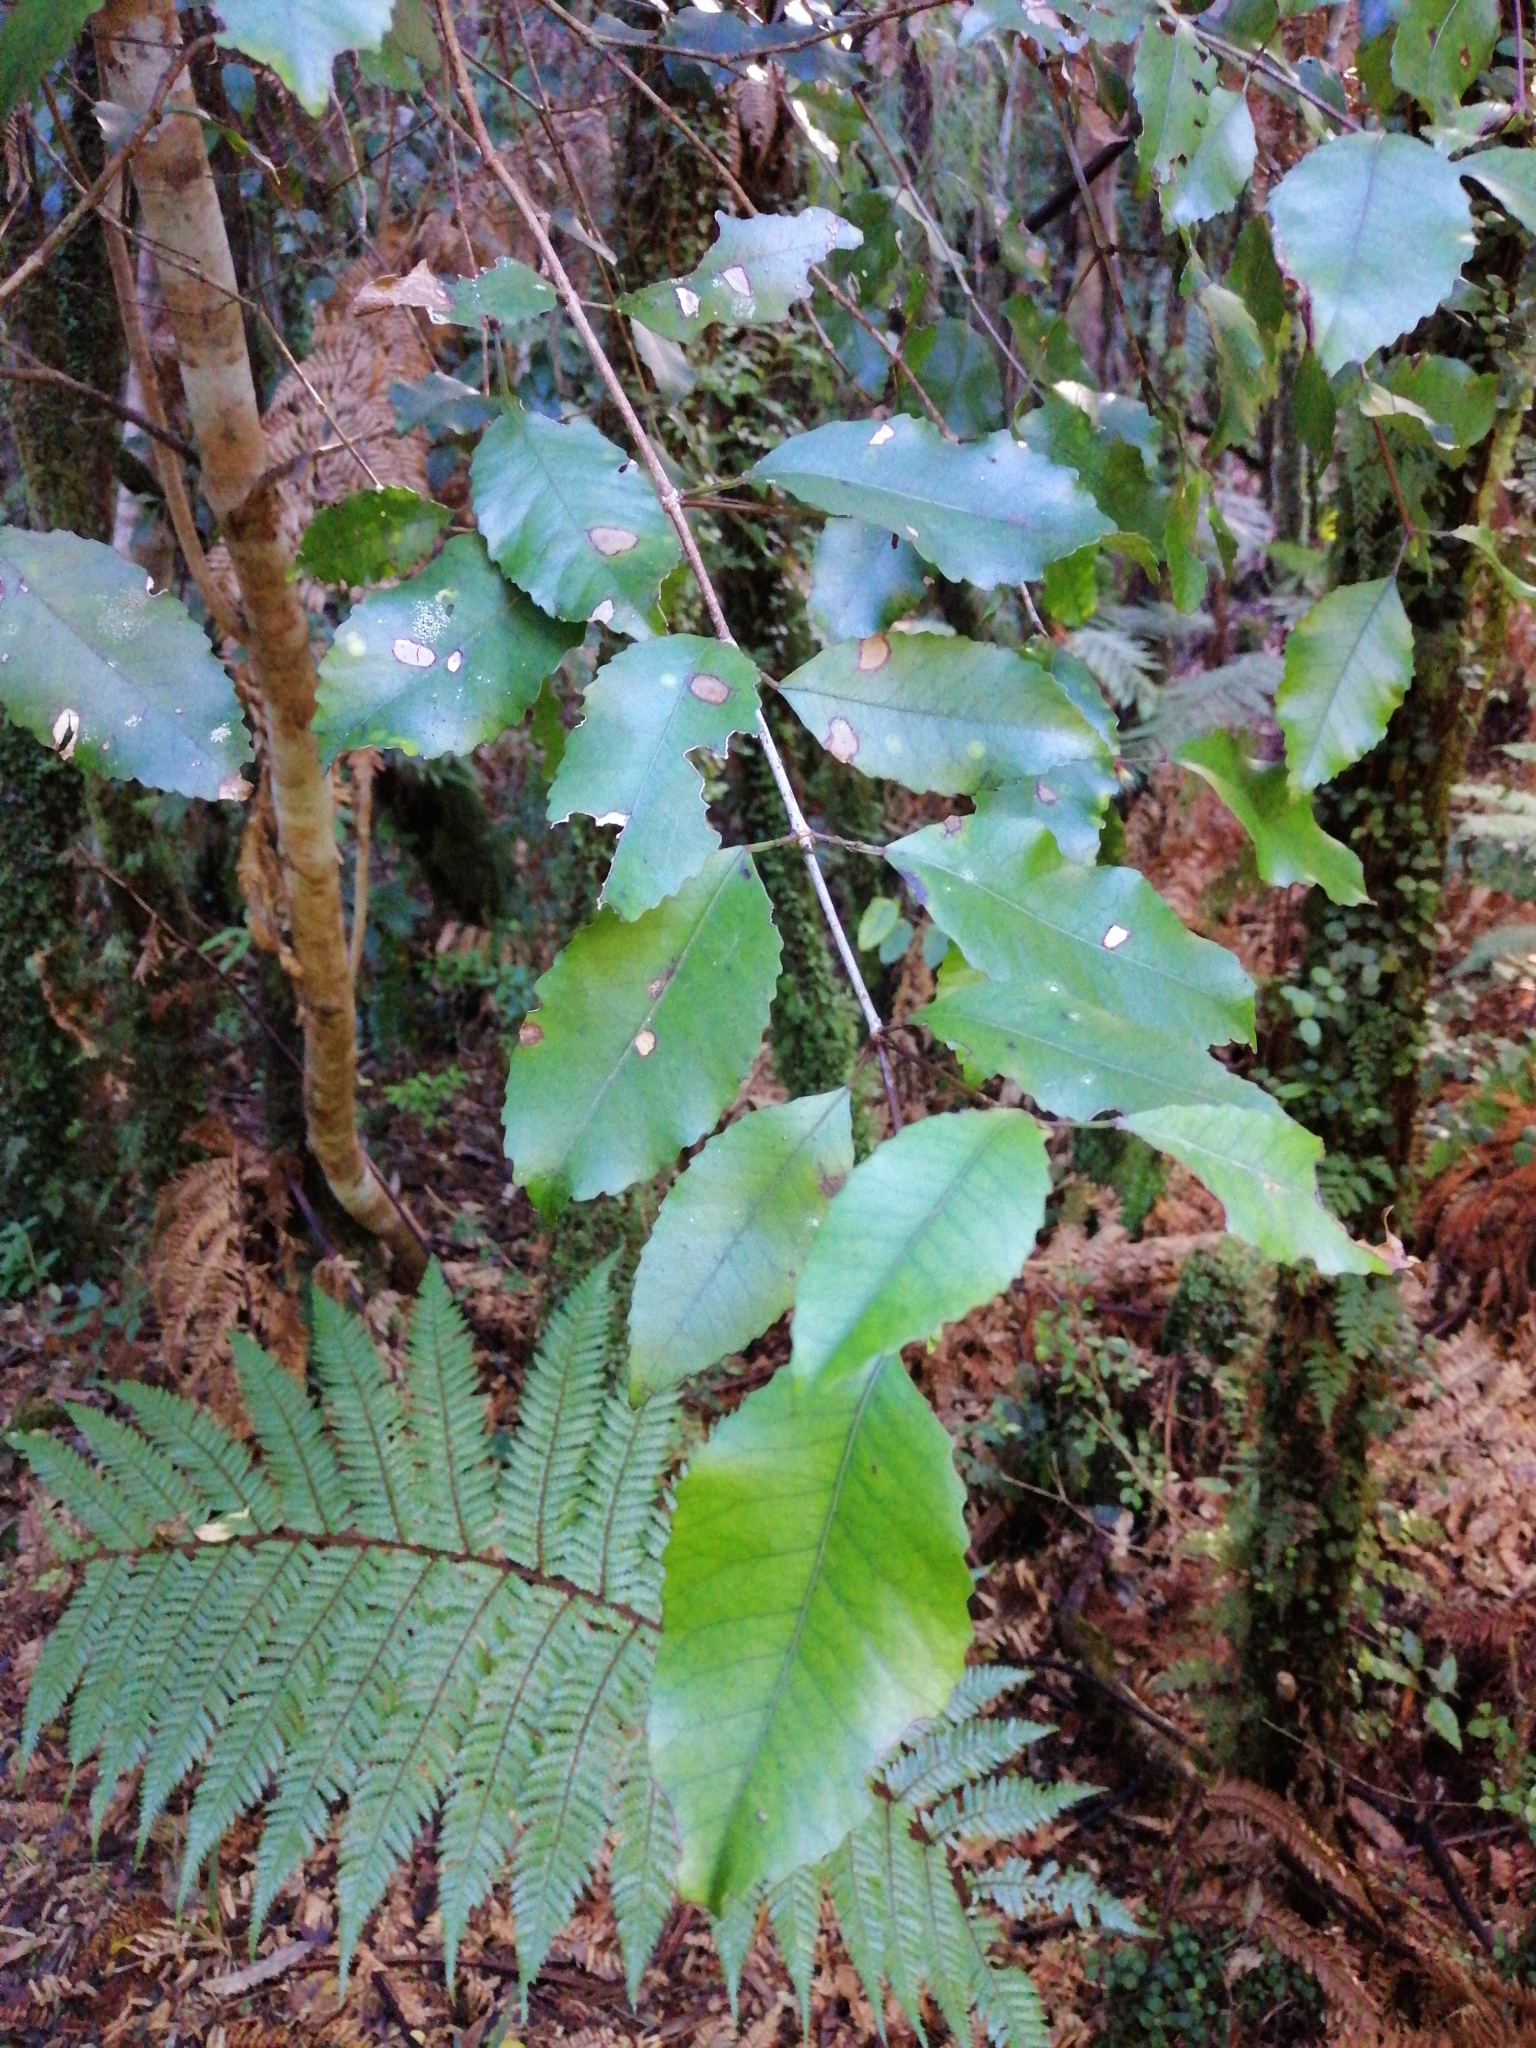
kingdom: Plantae
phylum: Tracheophyta
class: Magnoliopsida
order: Oxalidales
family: Cunoniaceae
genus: Pterophylla
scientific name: Pterophylla racemosa
